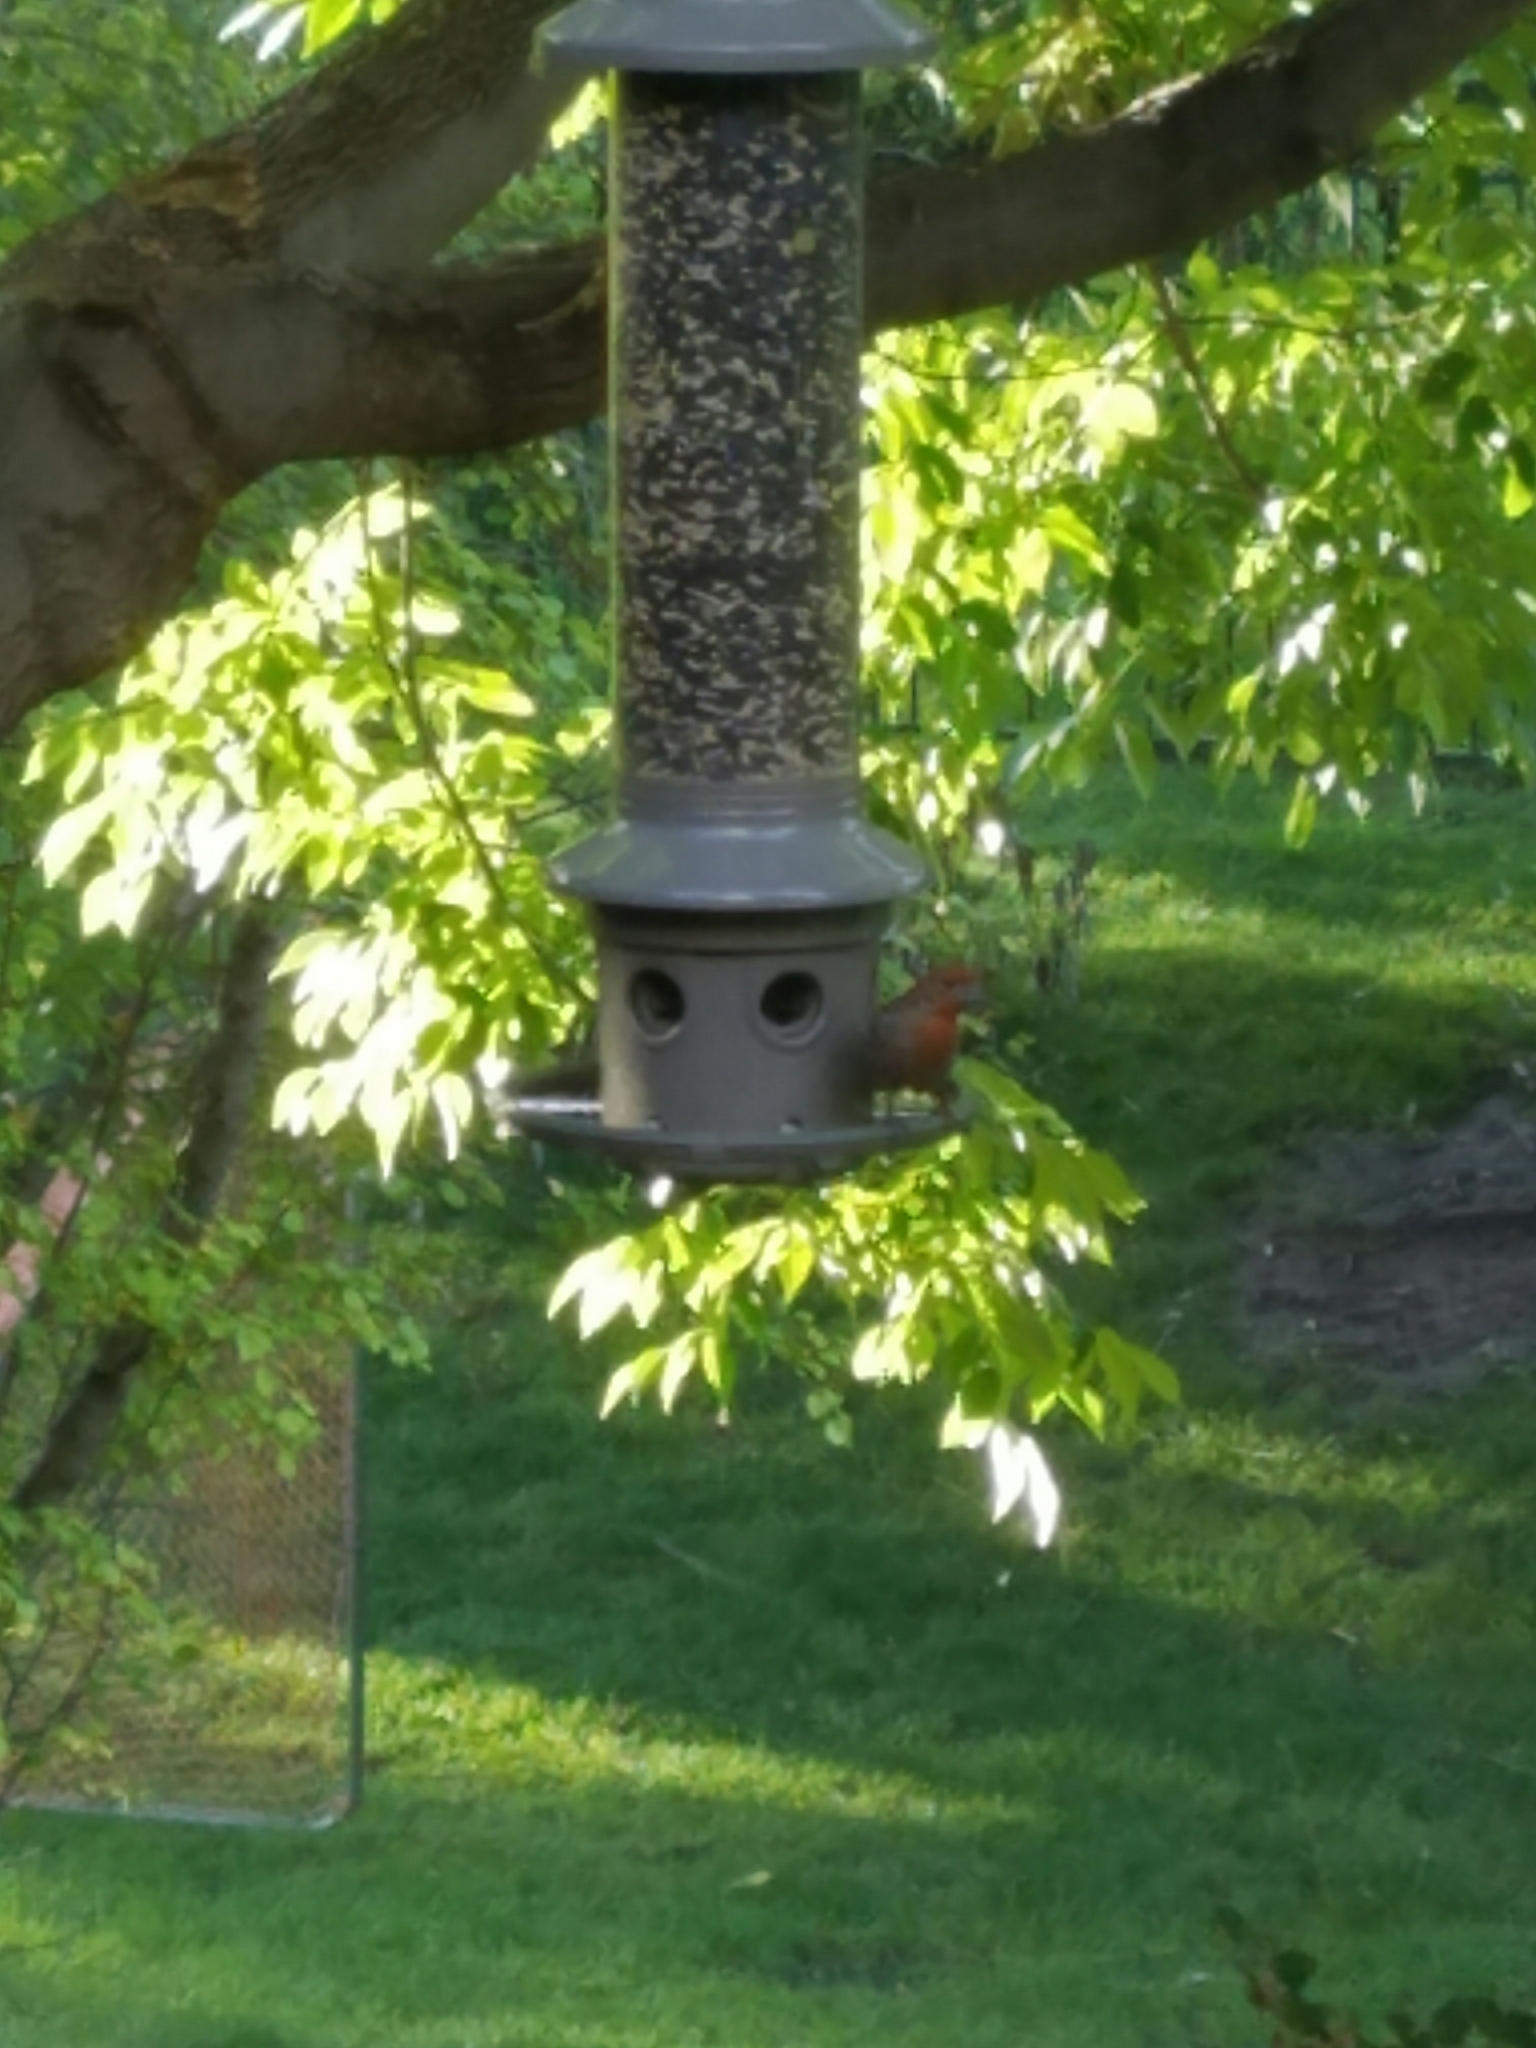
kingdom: Animalia
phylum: Chordata
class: Aves
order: Passeriformes
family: Fringillidae
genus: Haemorhous
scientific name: Haemorhous mexicanus
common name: House finch
